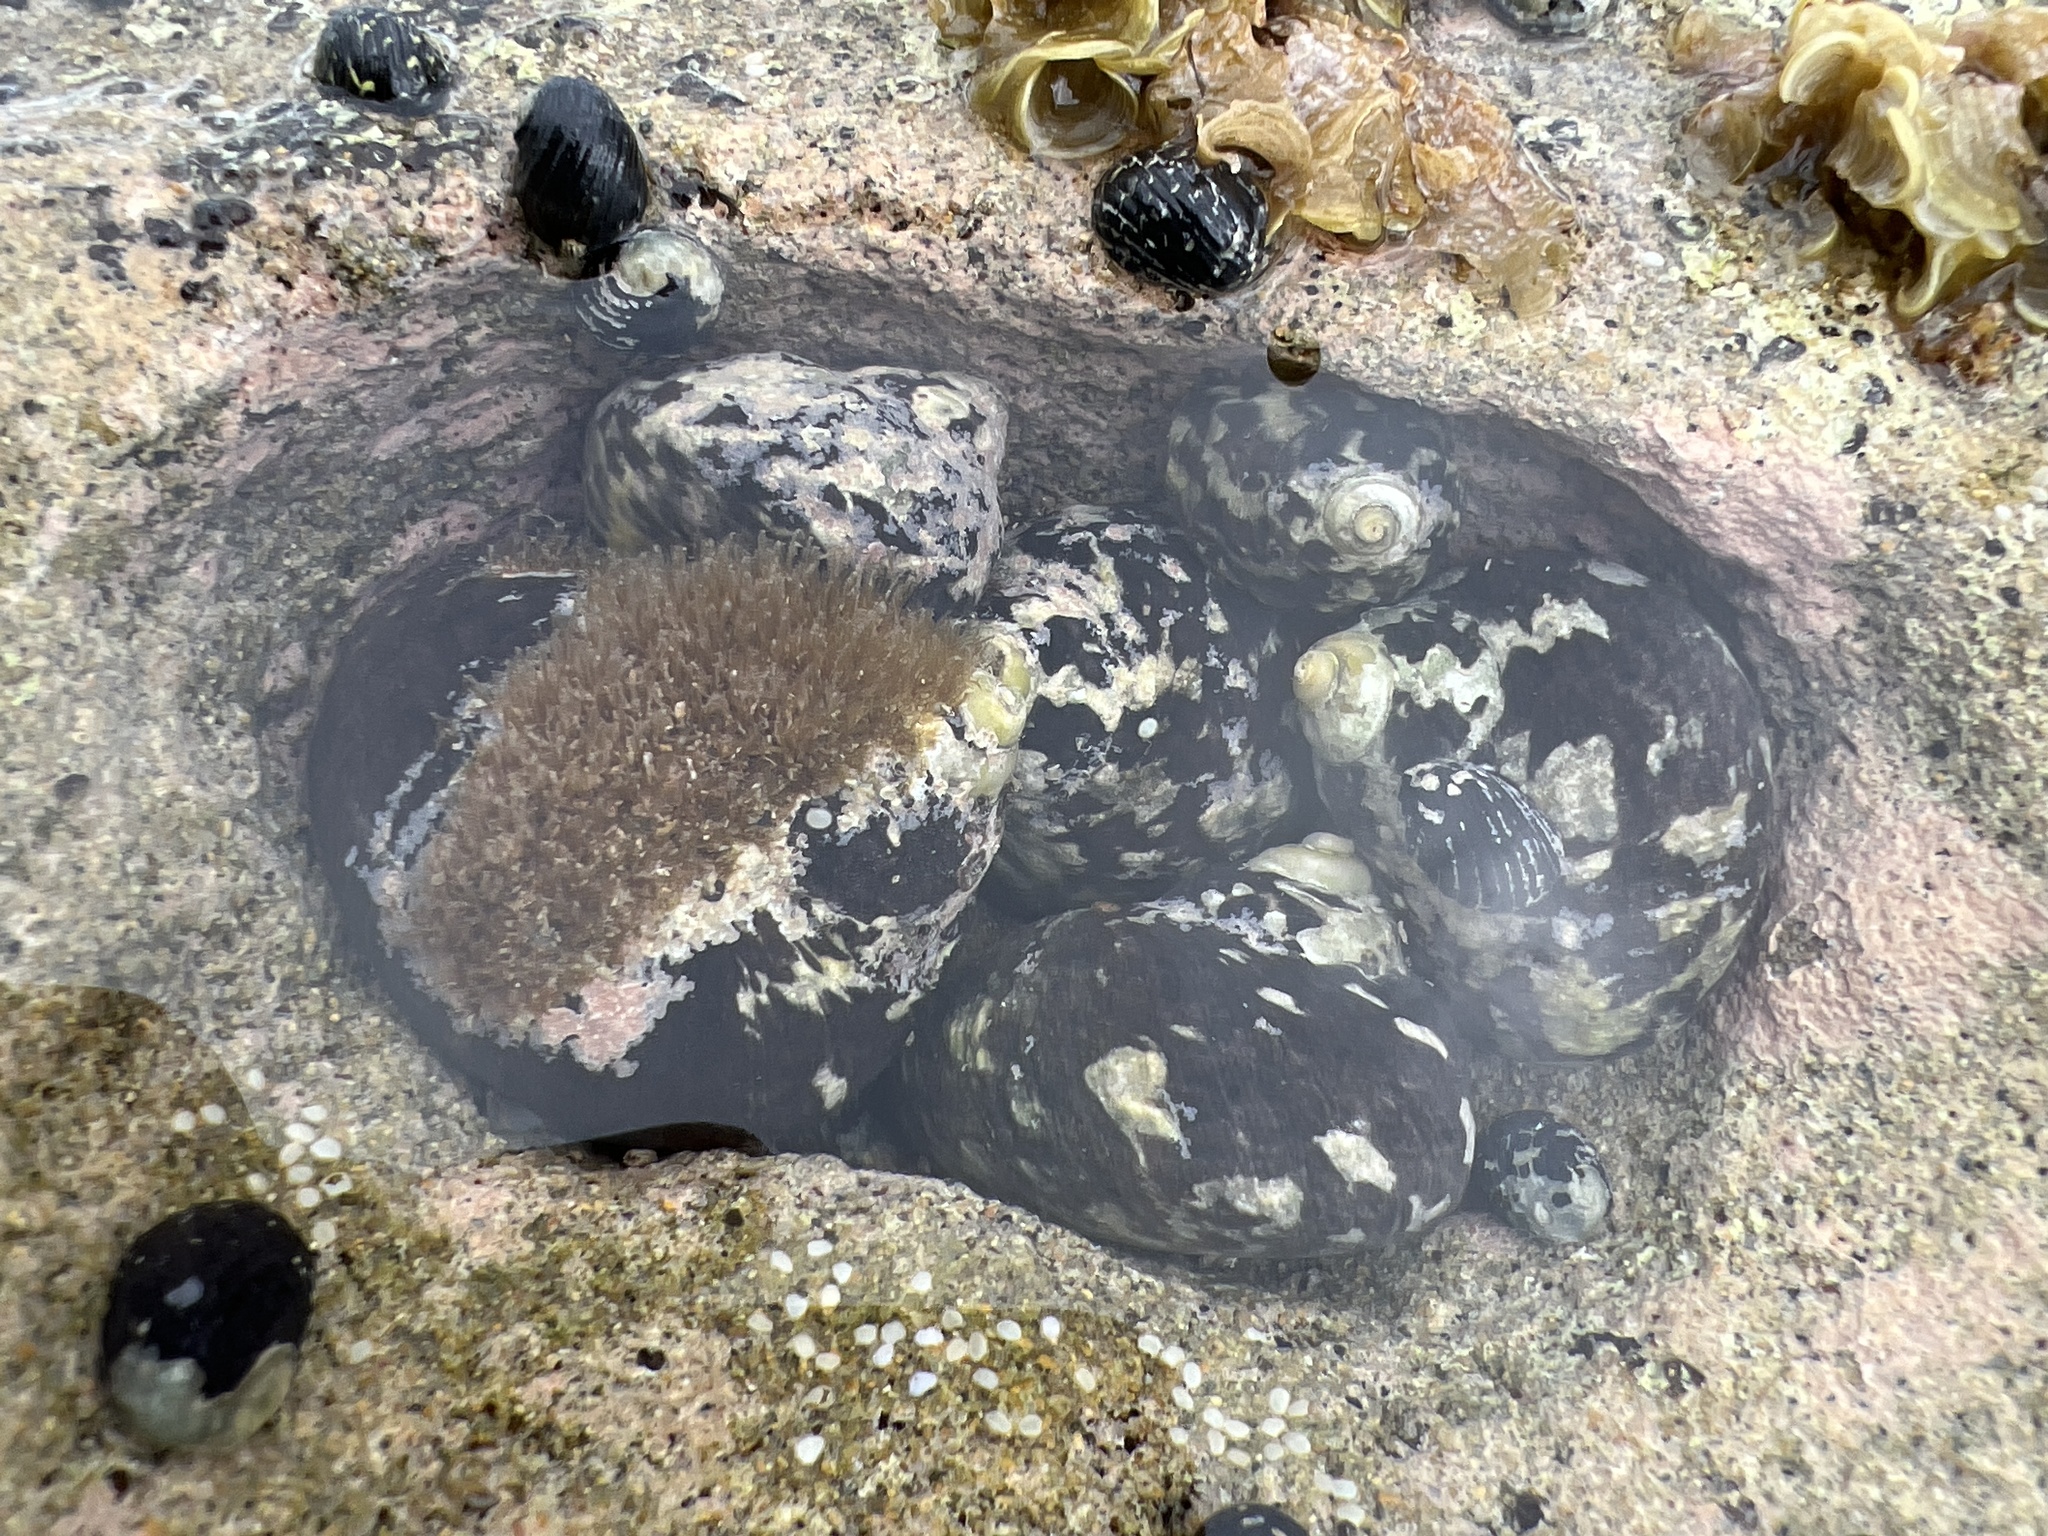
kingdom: Animalia
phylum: Mollusca
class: Gastropoda
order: Trochida
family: Tegulidae
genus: Cittarium
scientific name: Cittarium pica
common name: West indian topshell
